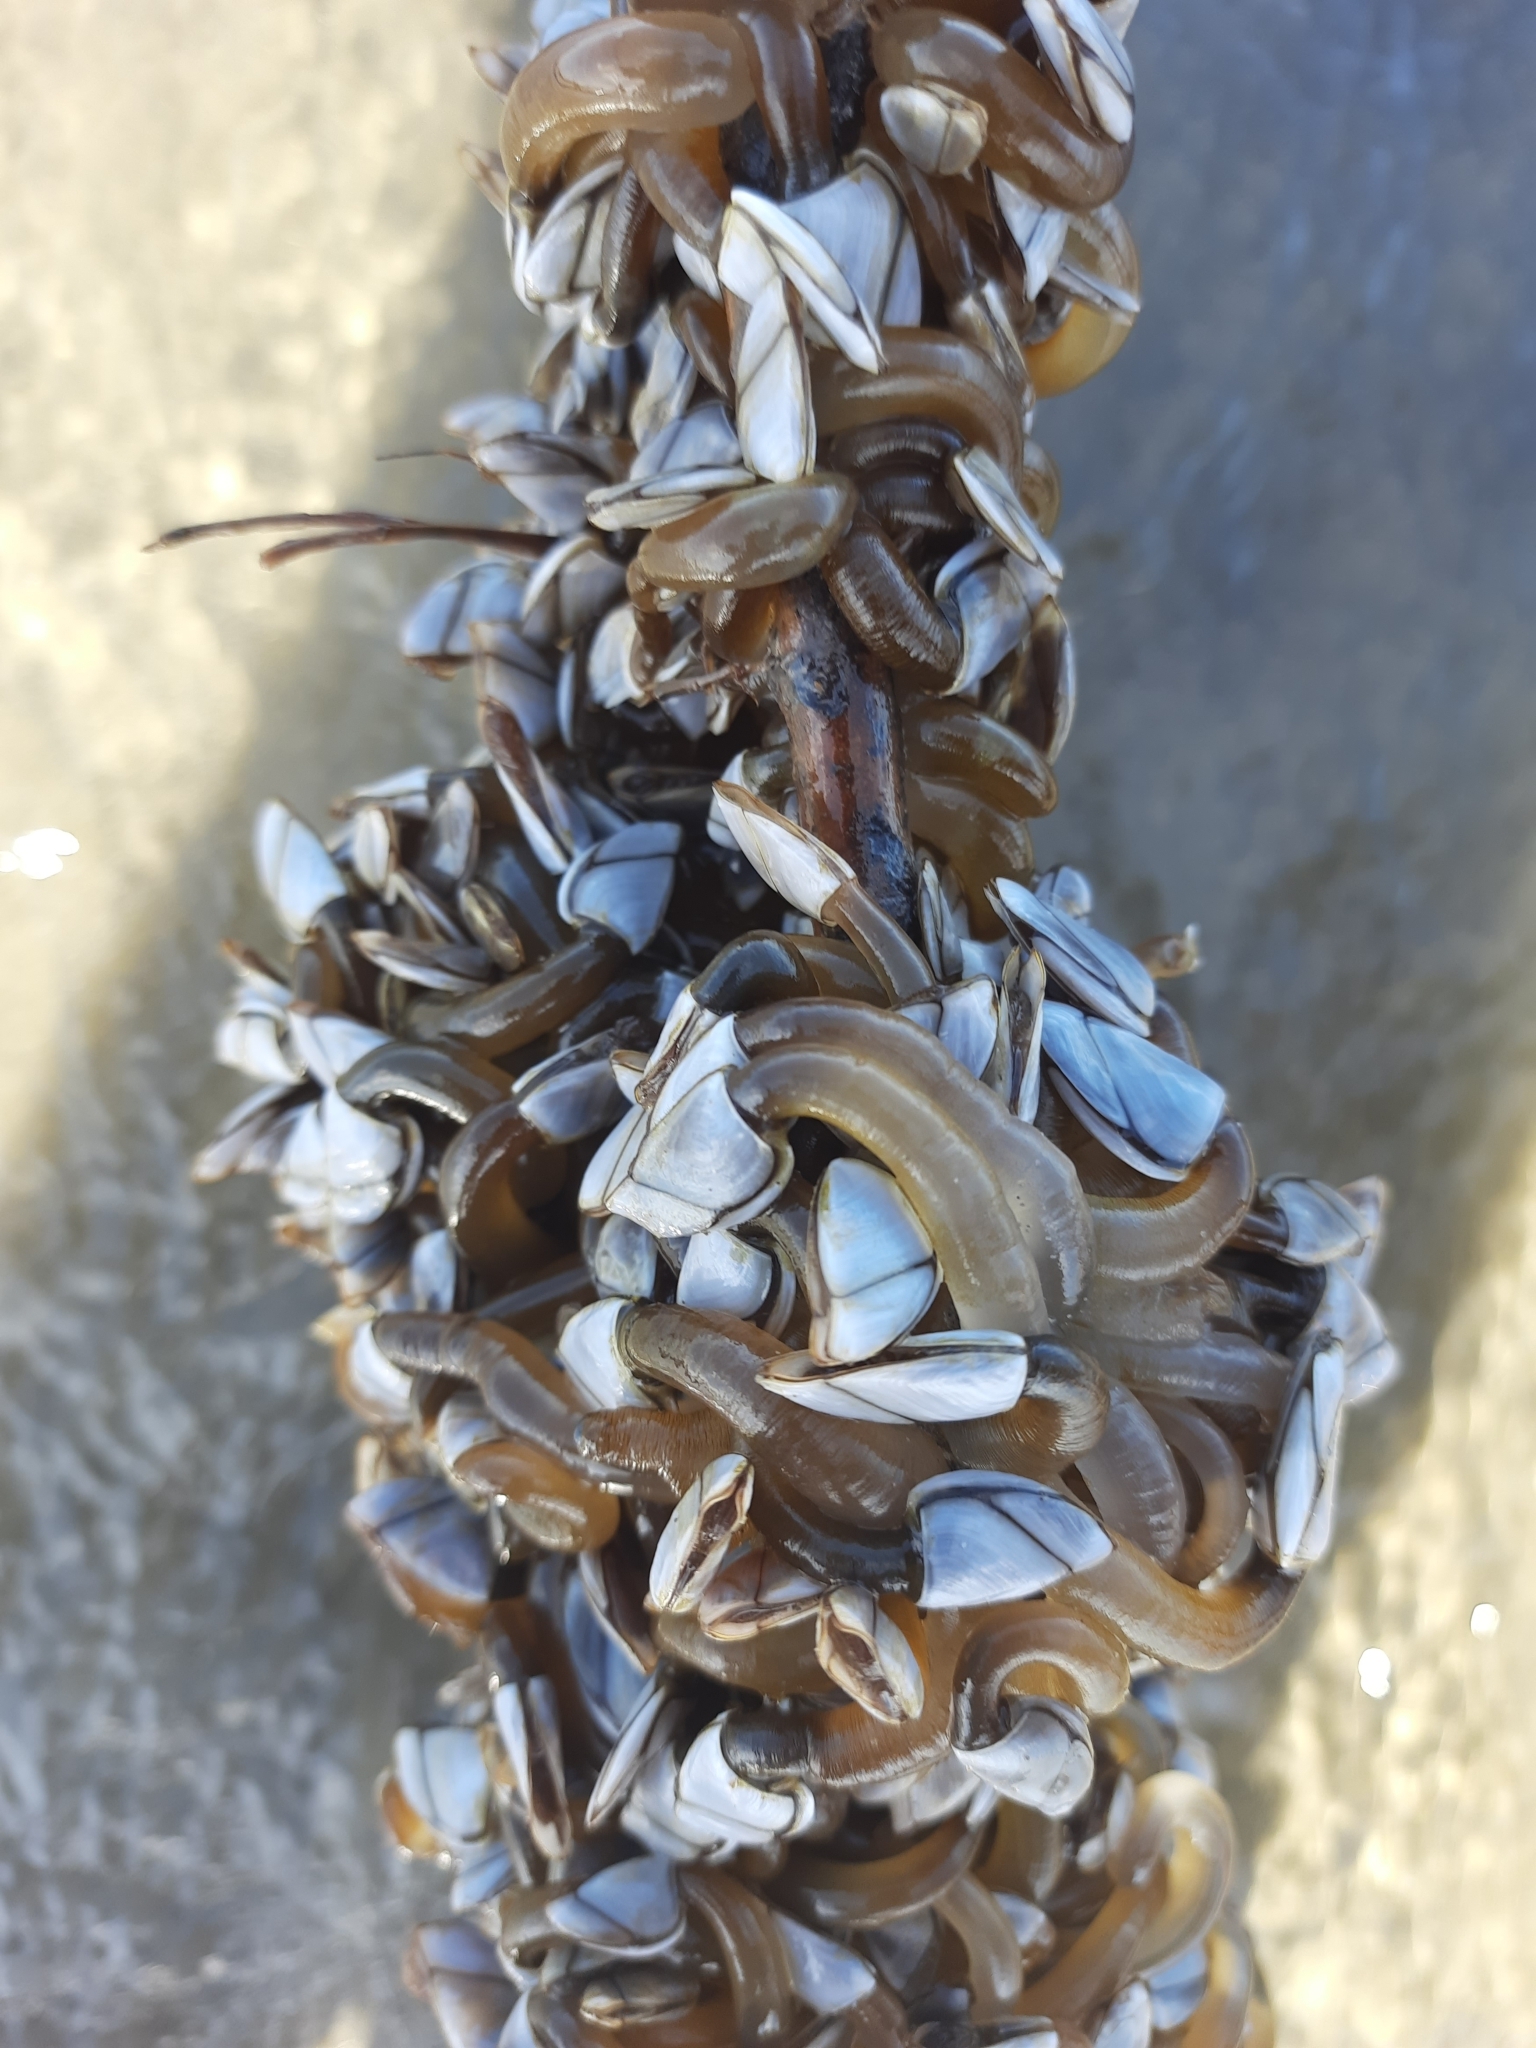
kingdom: Animalia
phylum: Arthropoda
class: Maxillopoda
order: Pedunculata
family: Lepadidae
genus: Lepas
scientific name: Lepas anatifera
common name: Common goose barnacle
